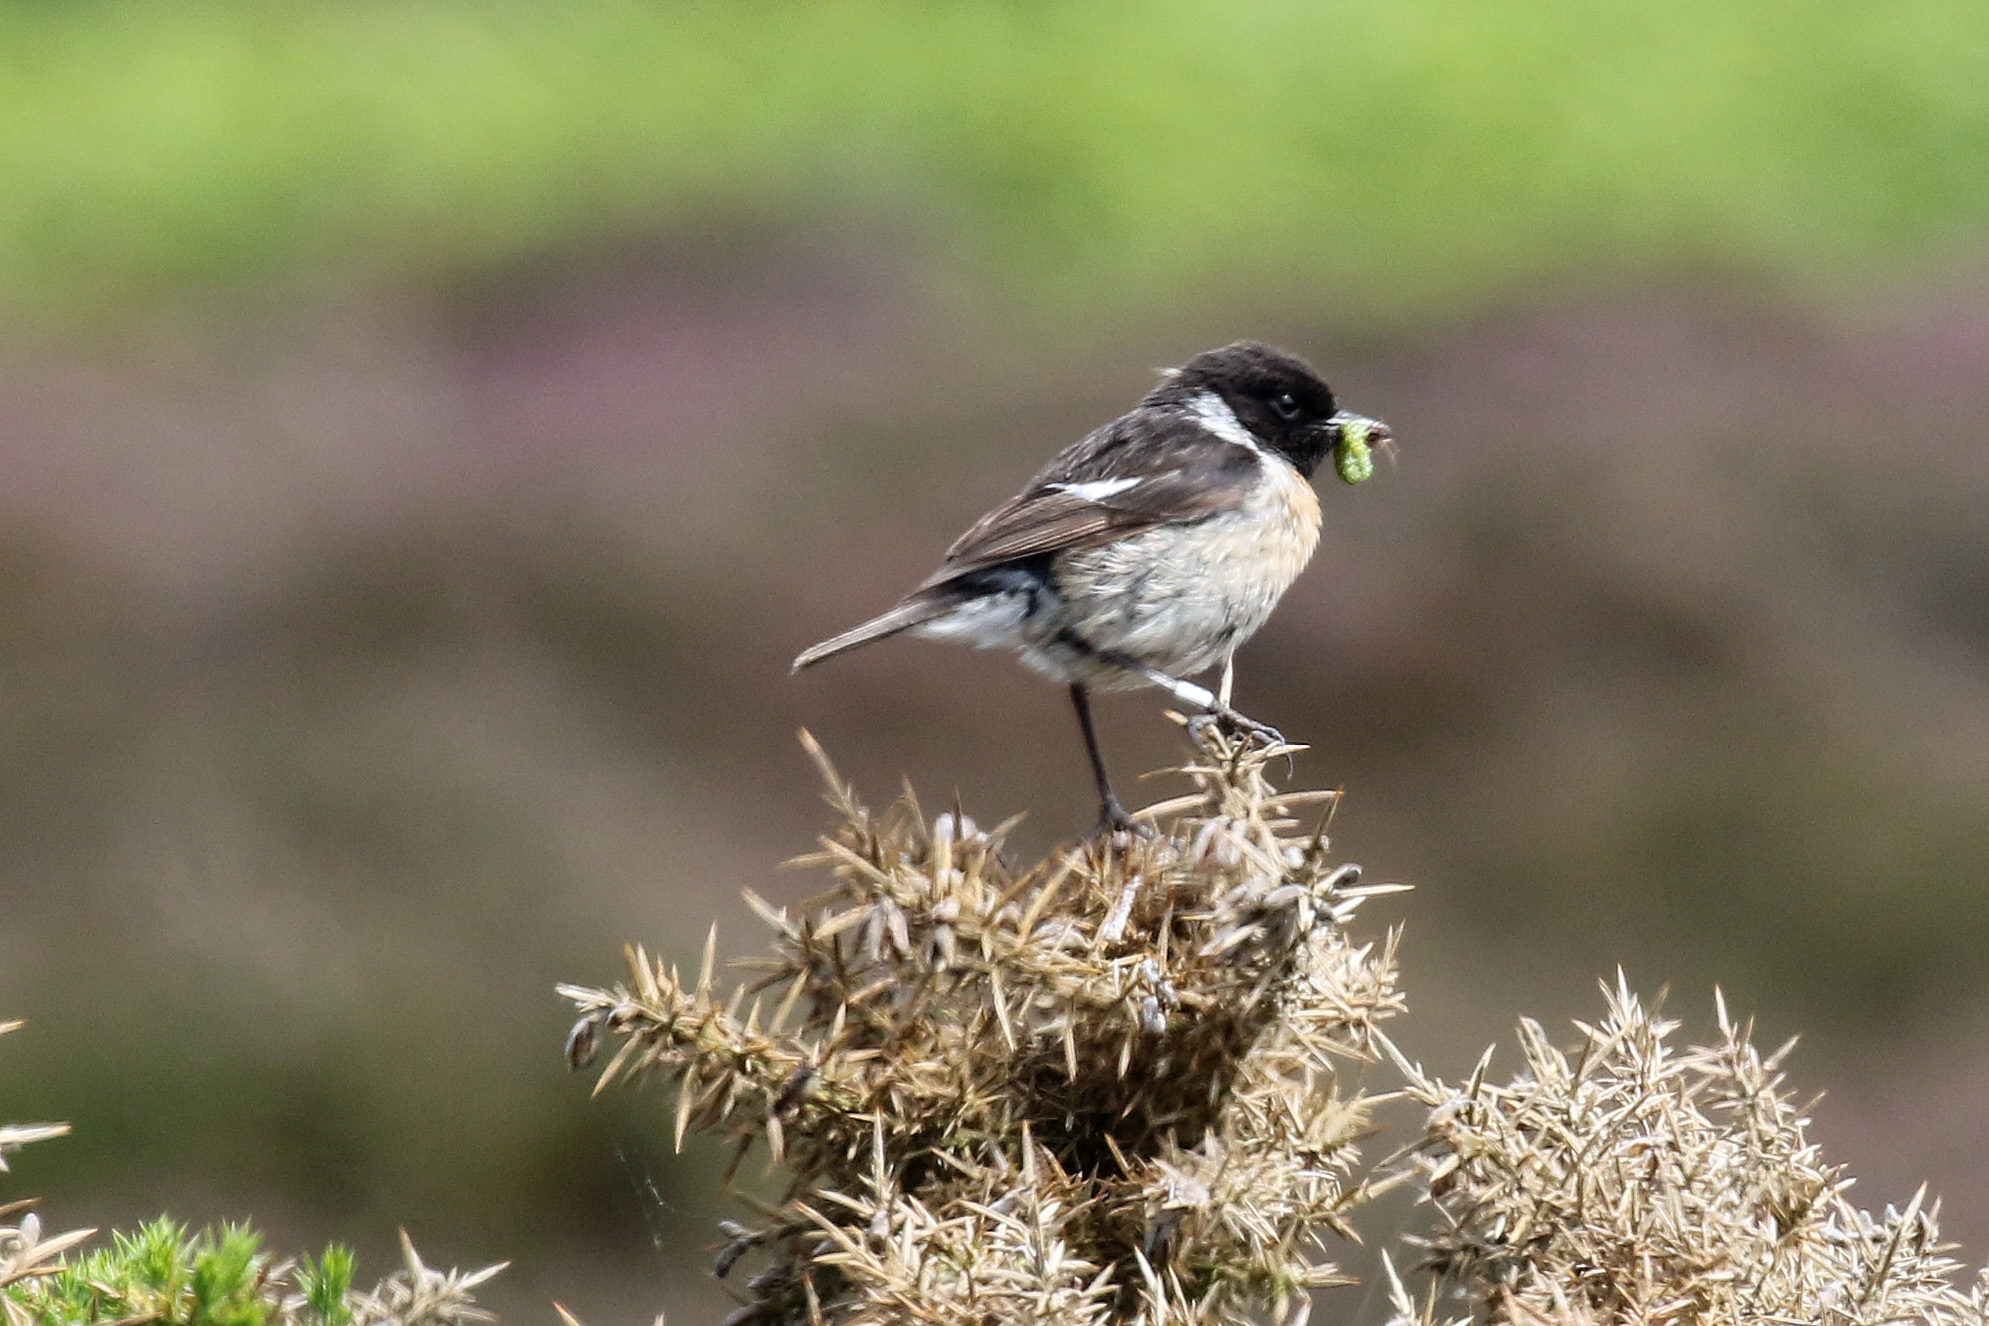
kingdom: Animalia
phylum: Chordata
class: Aves
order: Passeriformes
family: Muscicapidae
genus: Saxicola
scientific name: Saxicola rubicola
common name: European stonechat
